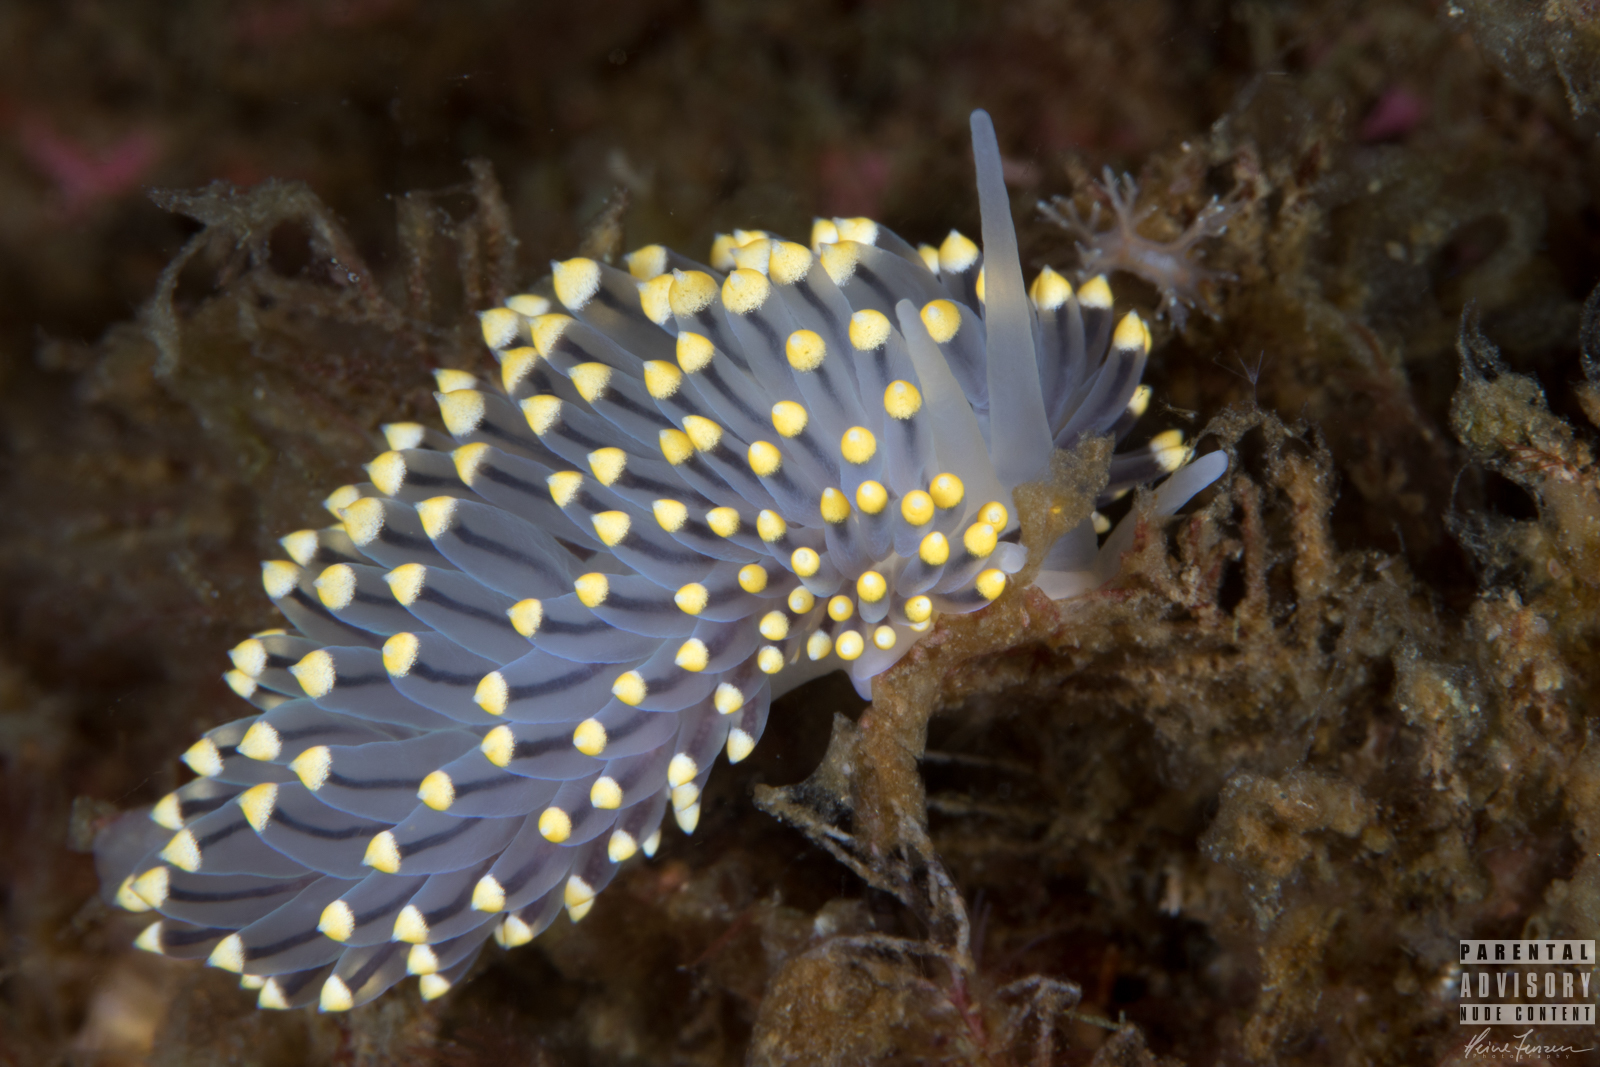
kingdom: Animalia
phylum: Mollusca
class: Gastropoda
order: Nudibranchia
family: Eubranchidae
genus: Eubranchus
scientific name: Eubranchus tricolor
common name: Painted balloon aeolis
